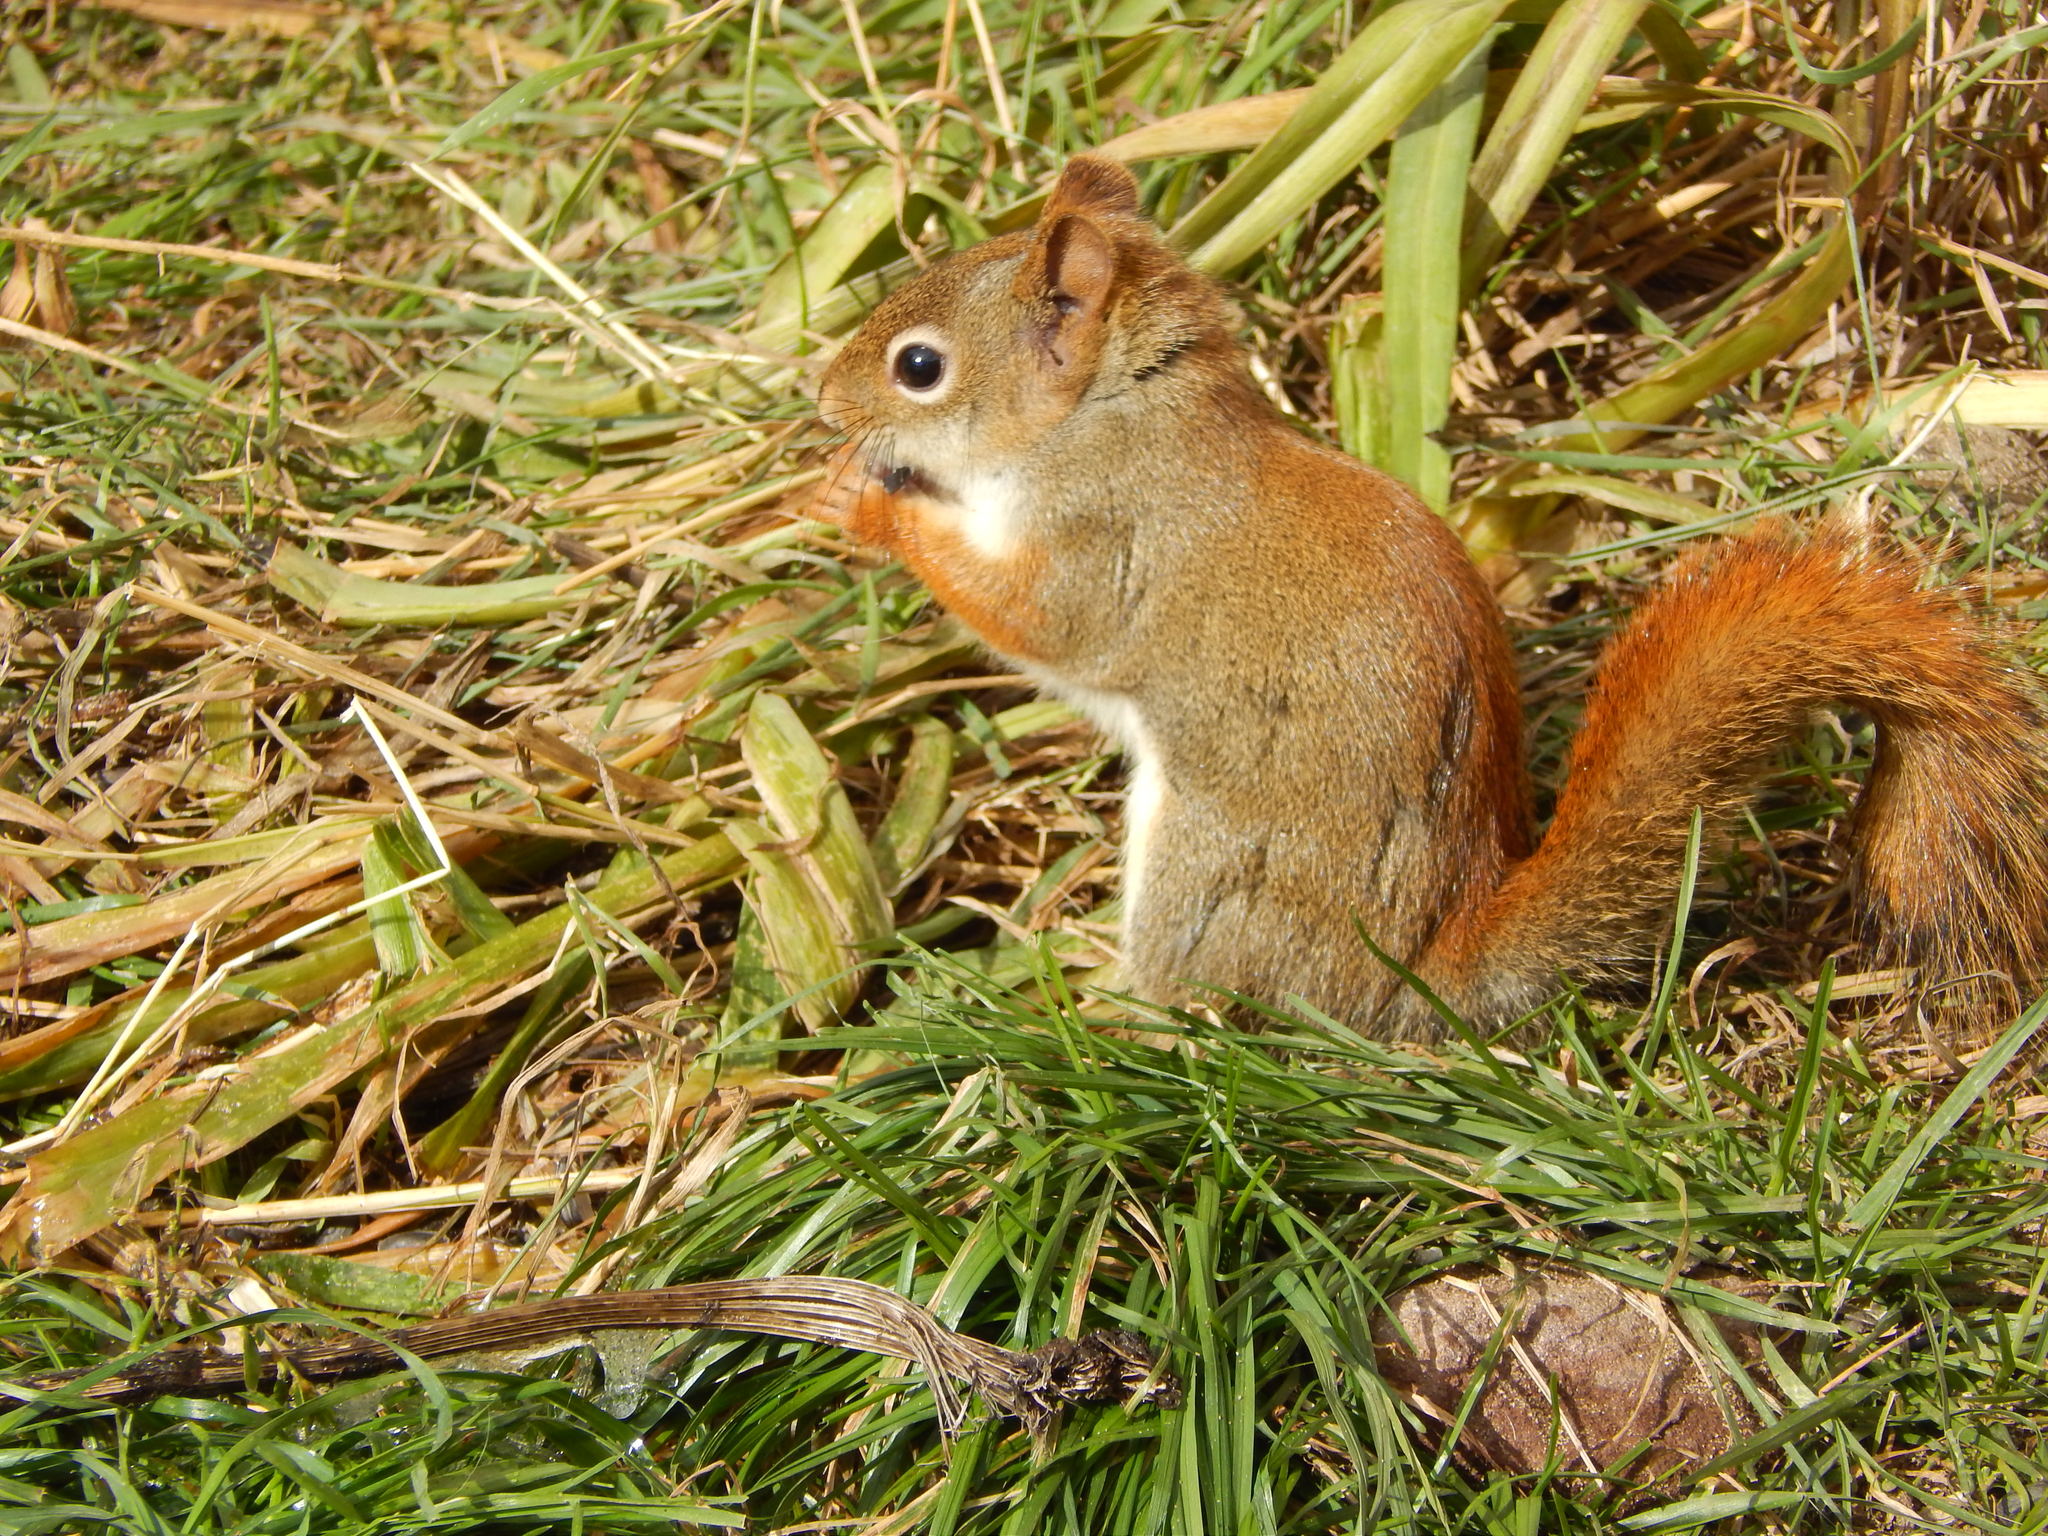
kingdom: Animalia
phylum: Chordata
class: Mammalia
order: Rodentia
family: Sciuridae
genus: Tamiasciurus
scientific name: Tamiasciurus hudsonicus
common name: Red squirrel
